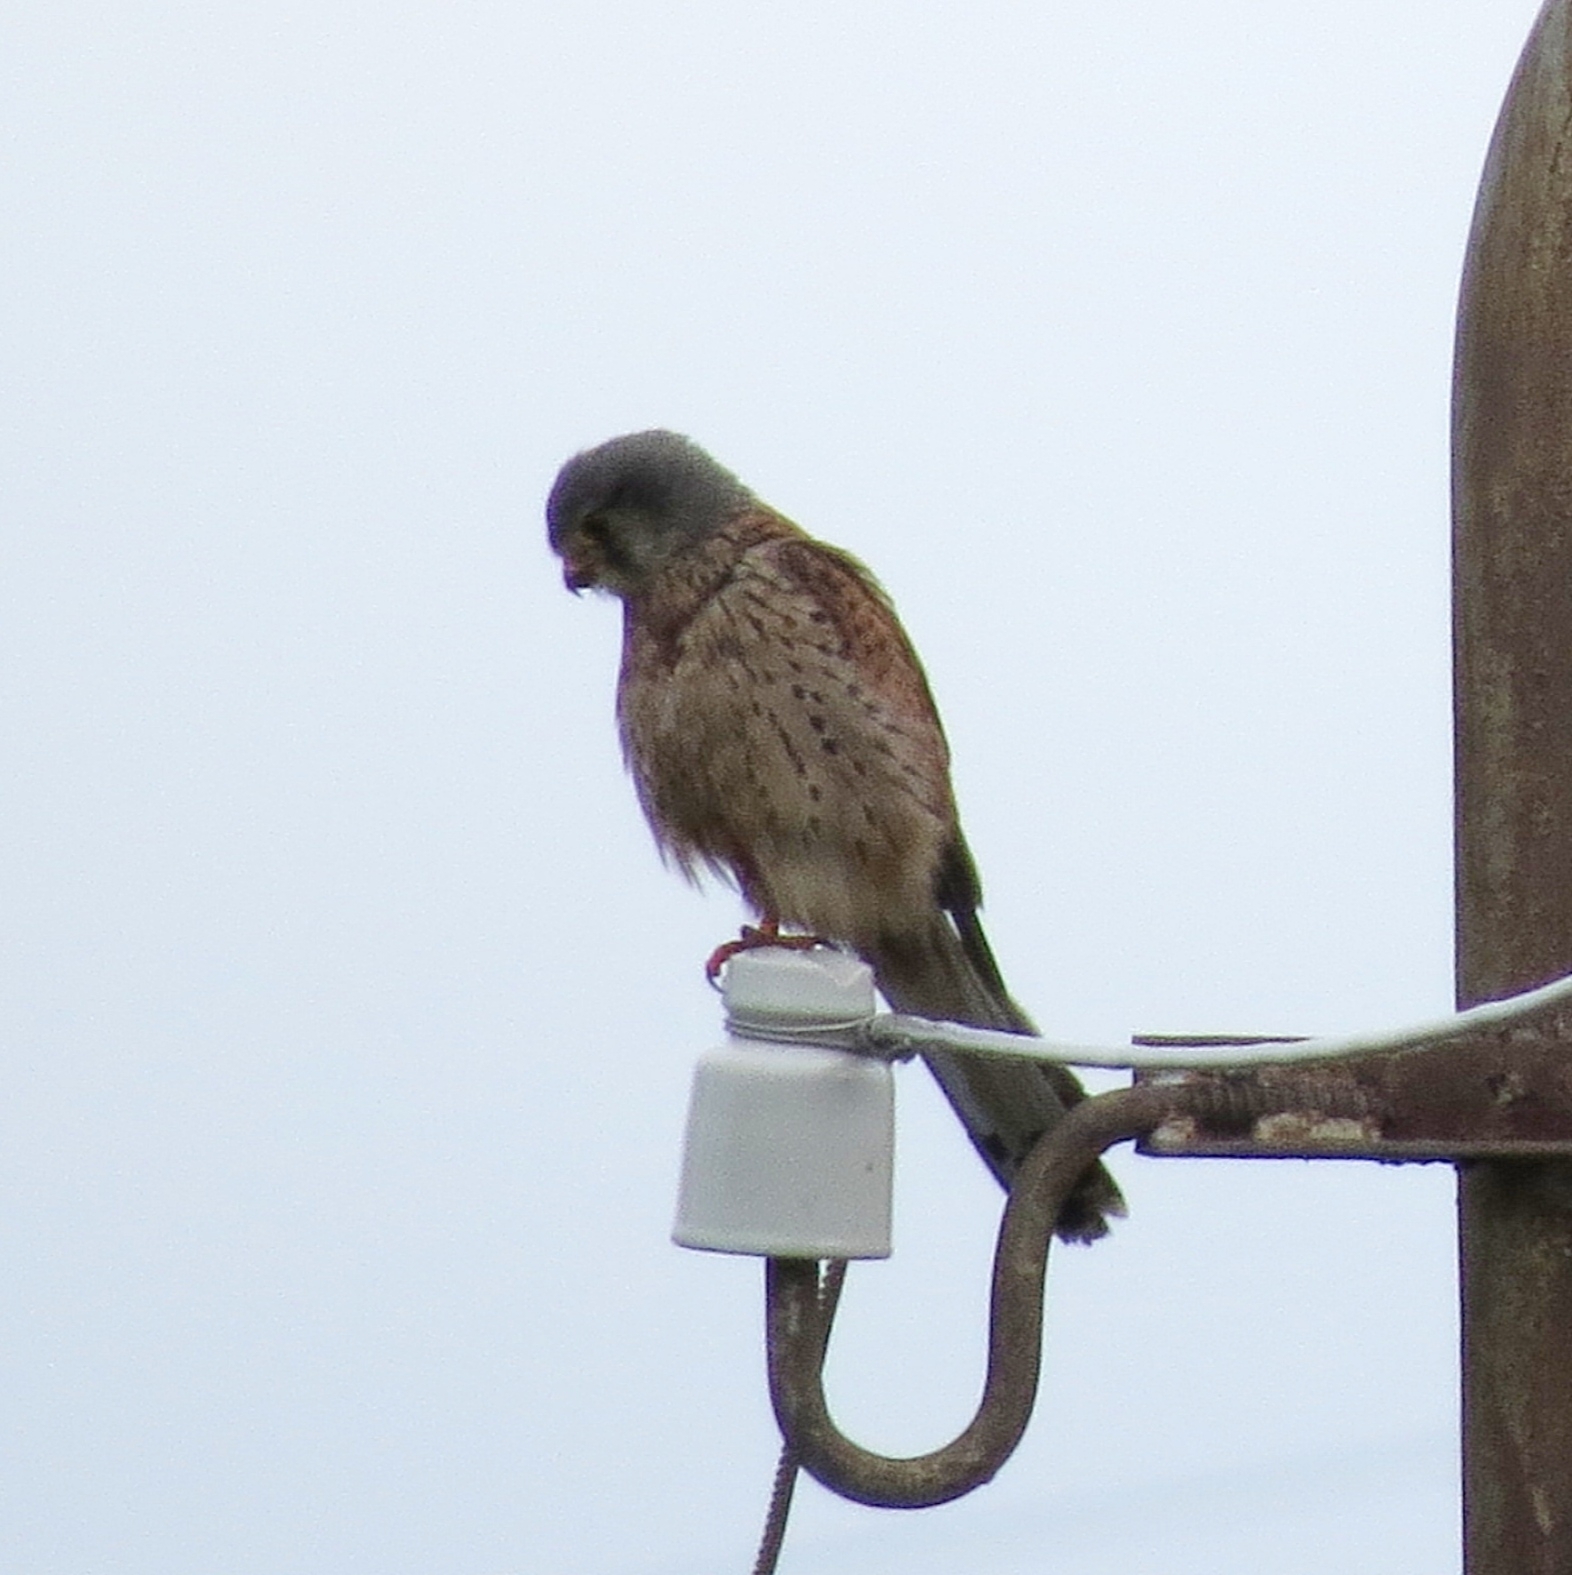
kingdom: Animalia
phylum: Chordata
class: Aves
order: Falconiformes
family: Falconidae
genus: Falco
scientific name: Falco tinnunculus
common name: Common kestrel
